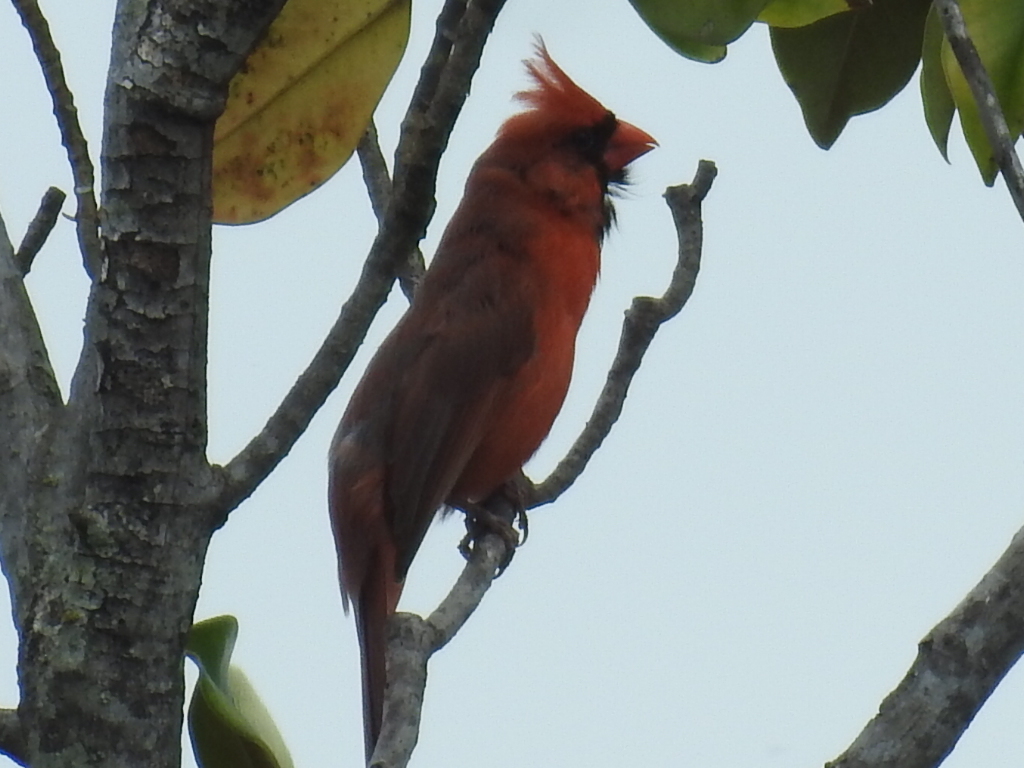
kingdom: Animalia
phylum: Chordata
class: Aves
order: Passeriformes
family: Cardinalidae
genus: Cardinalis
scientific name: Cardinalis cardinalis
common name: Northern cardinal
